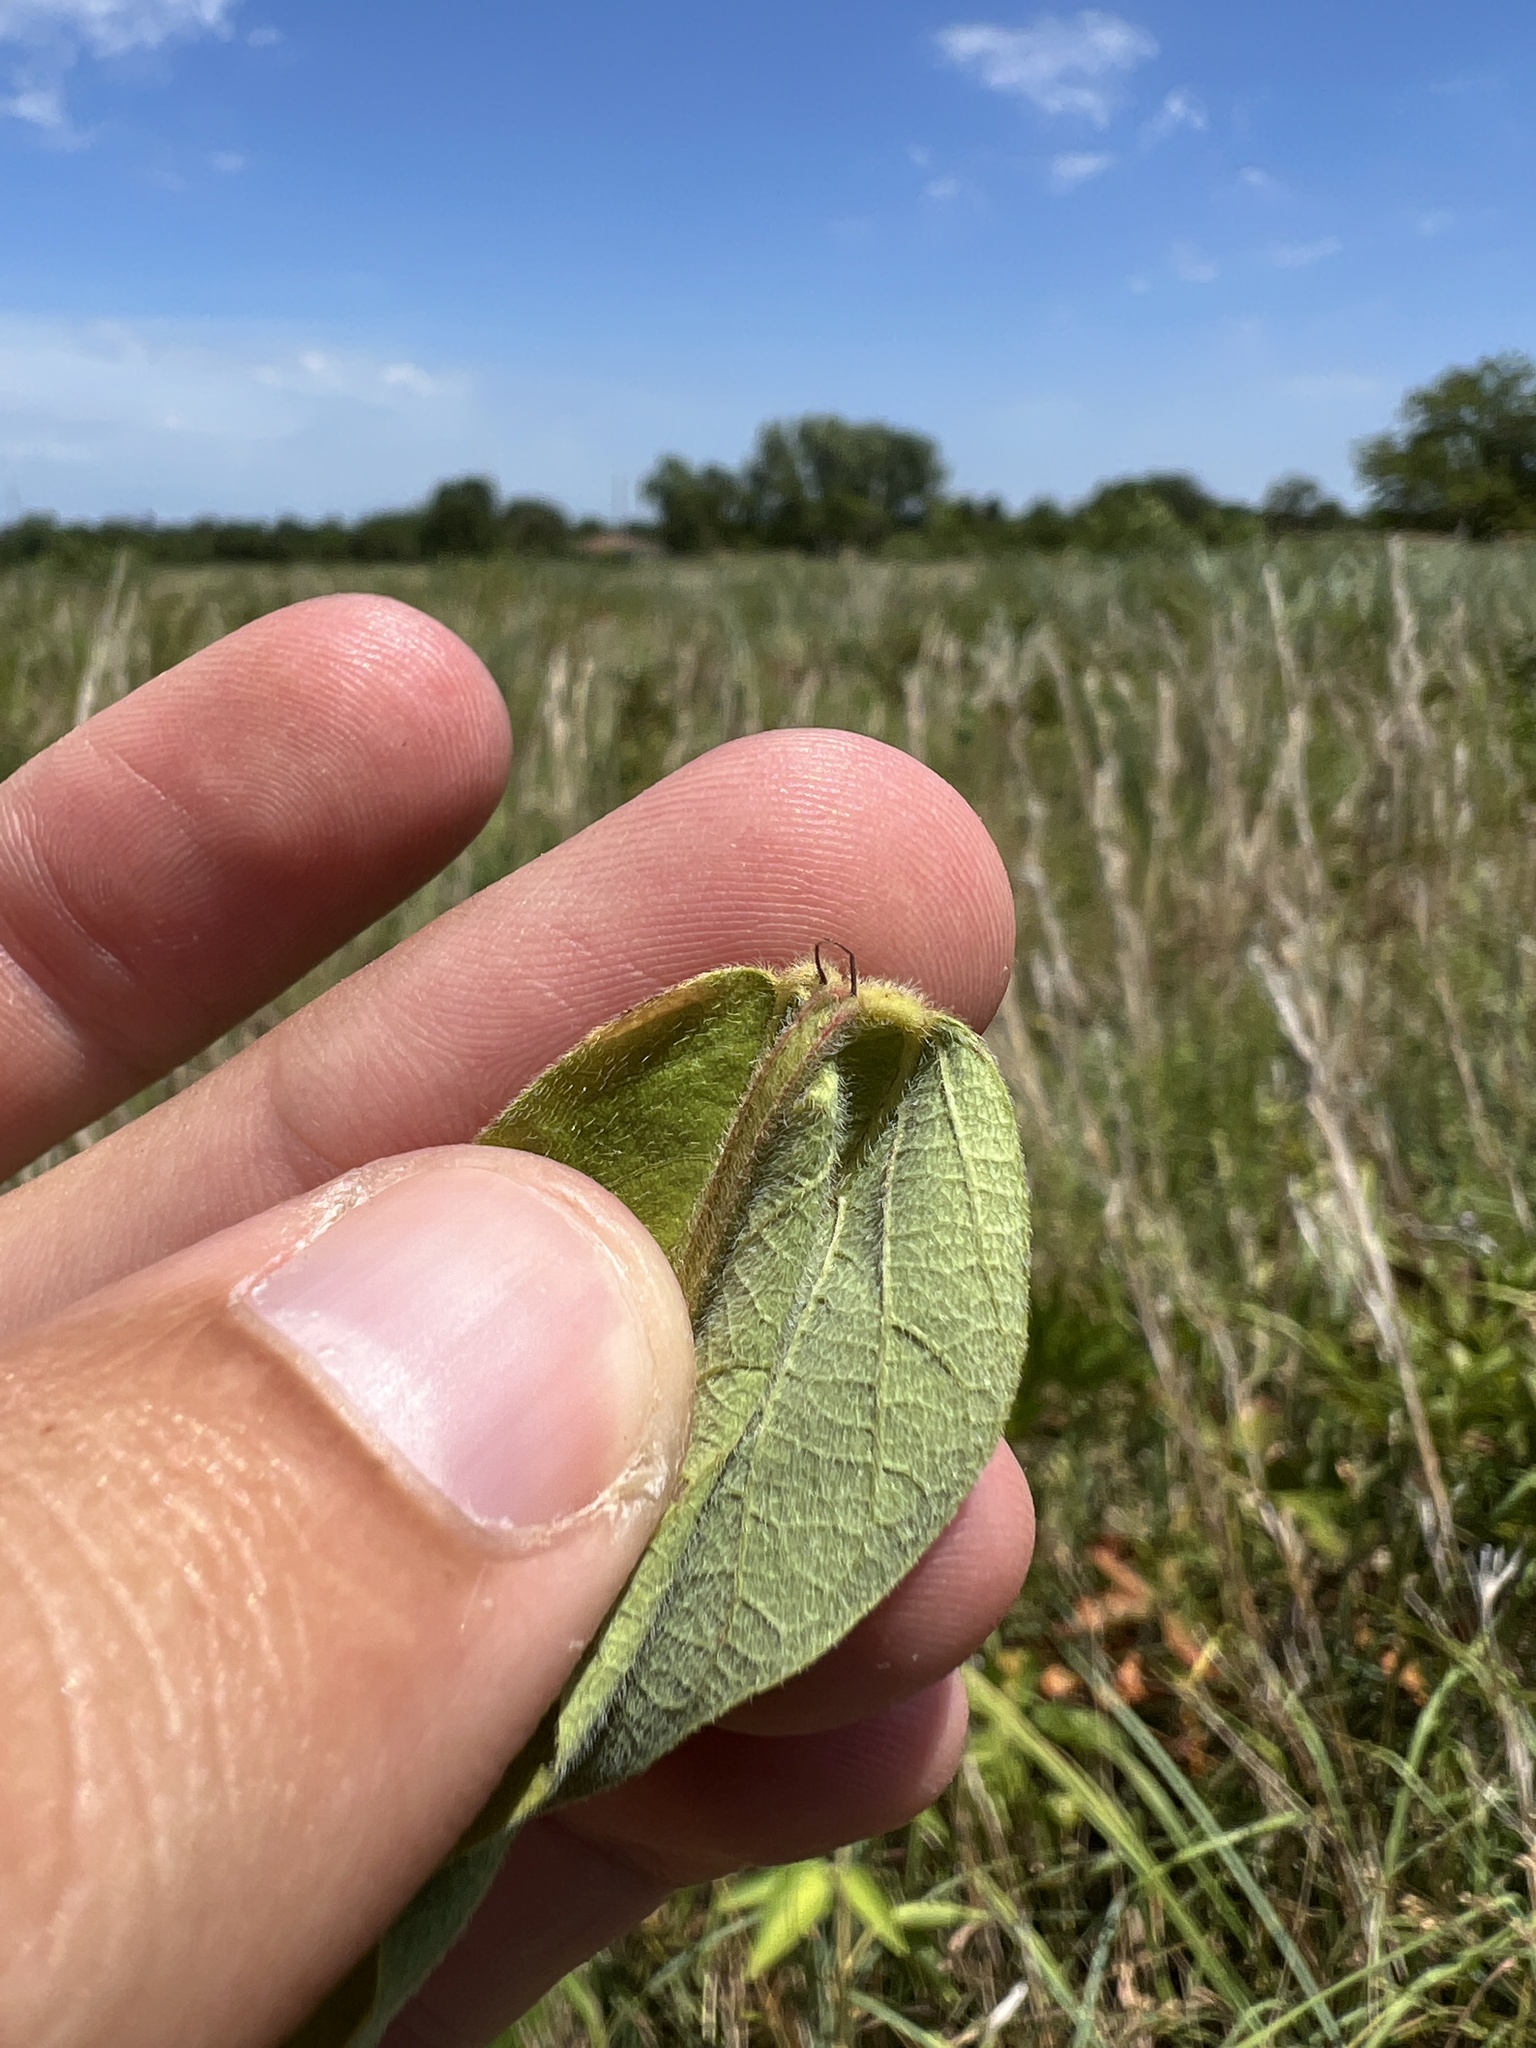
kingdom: Plantae
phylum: Tracheophyta
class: Magnoliopsida
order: Fabales
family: Fabaceae
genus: Desmodium
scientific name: Desmodium canadense
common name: Canada tick-trefoil
